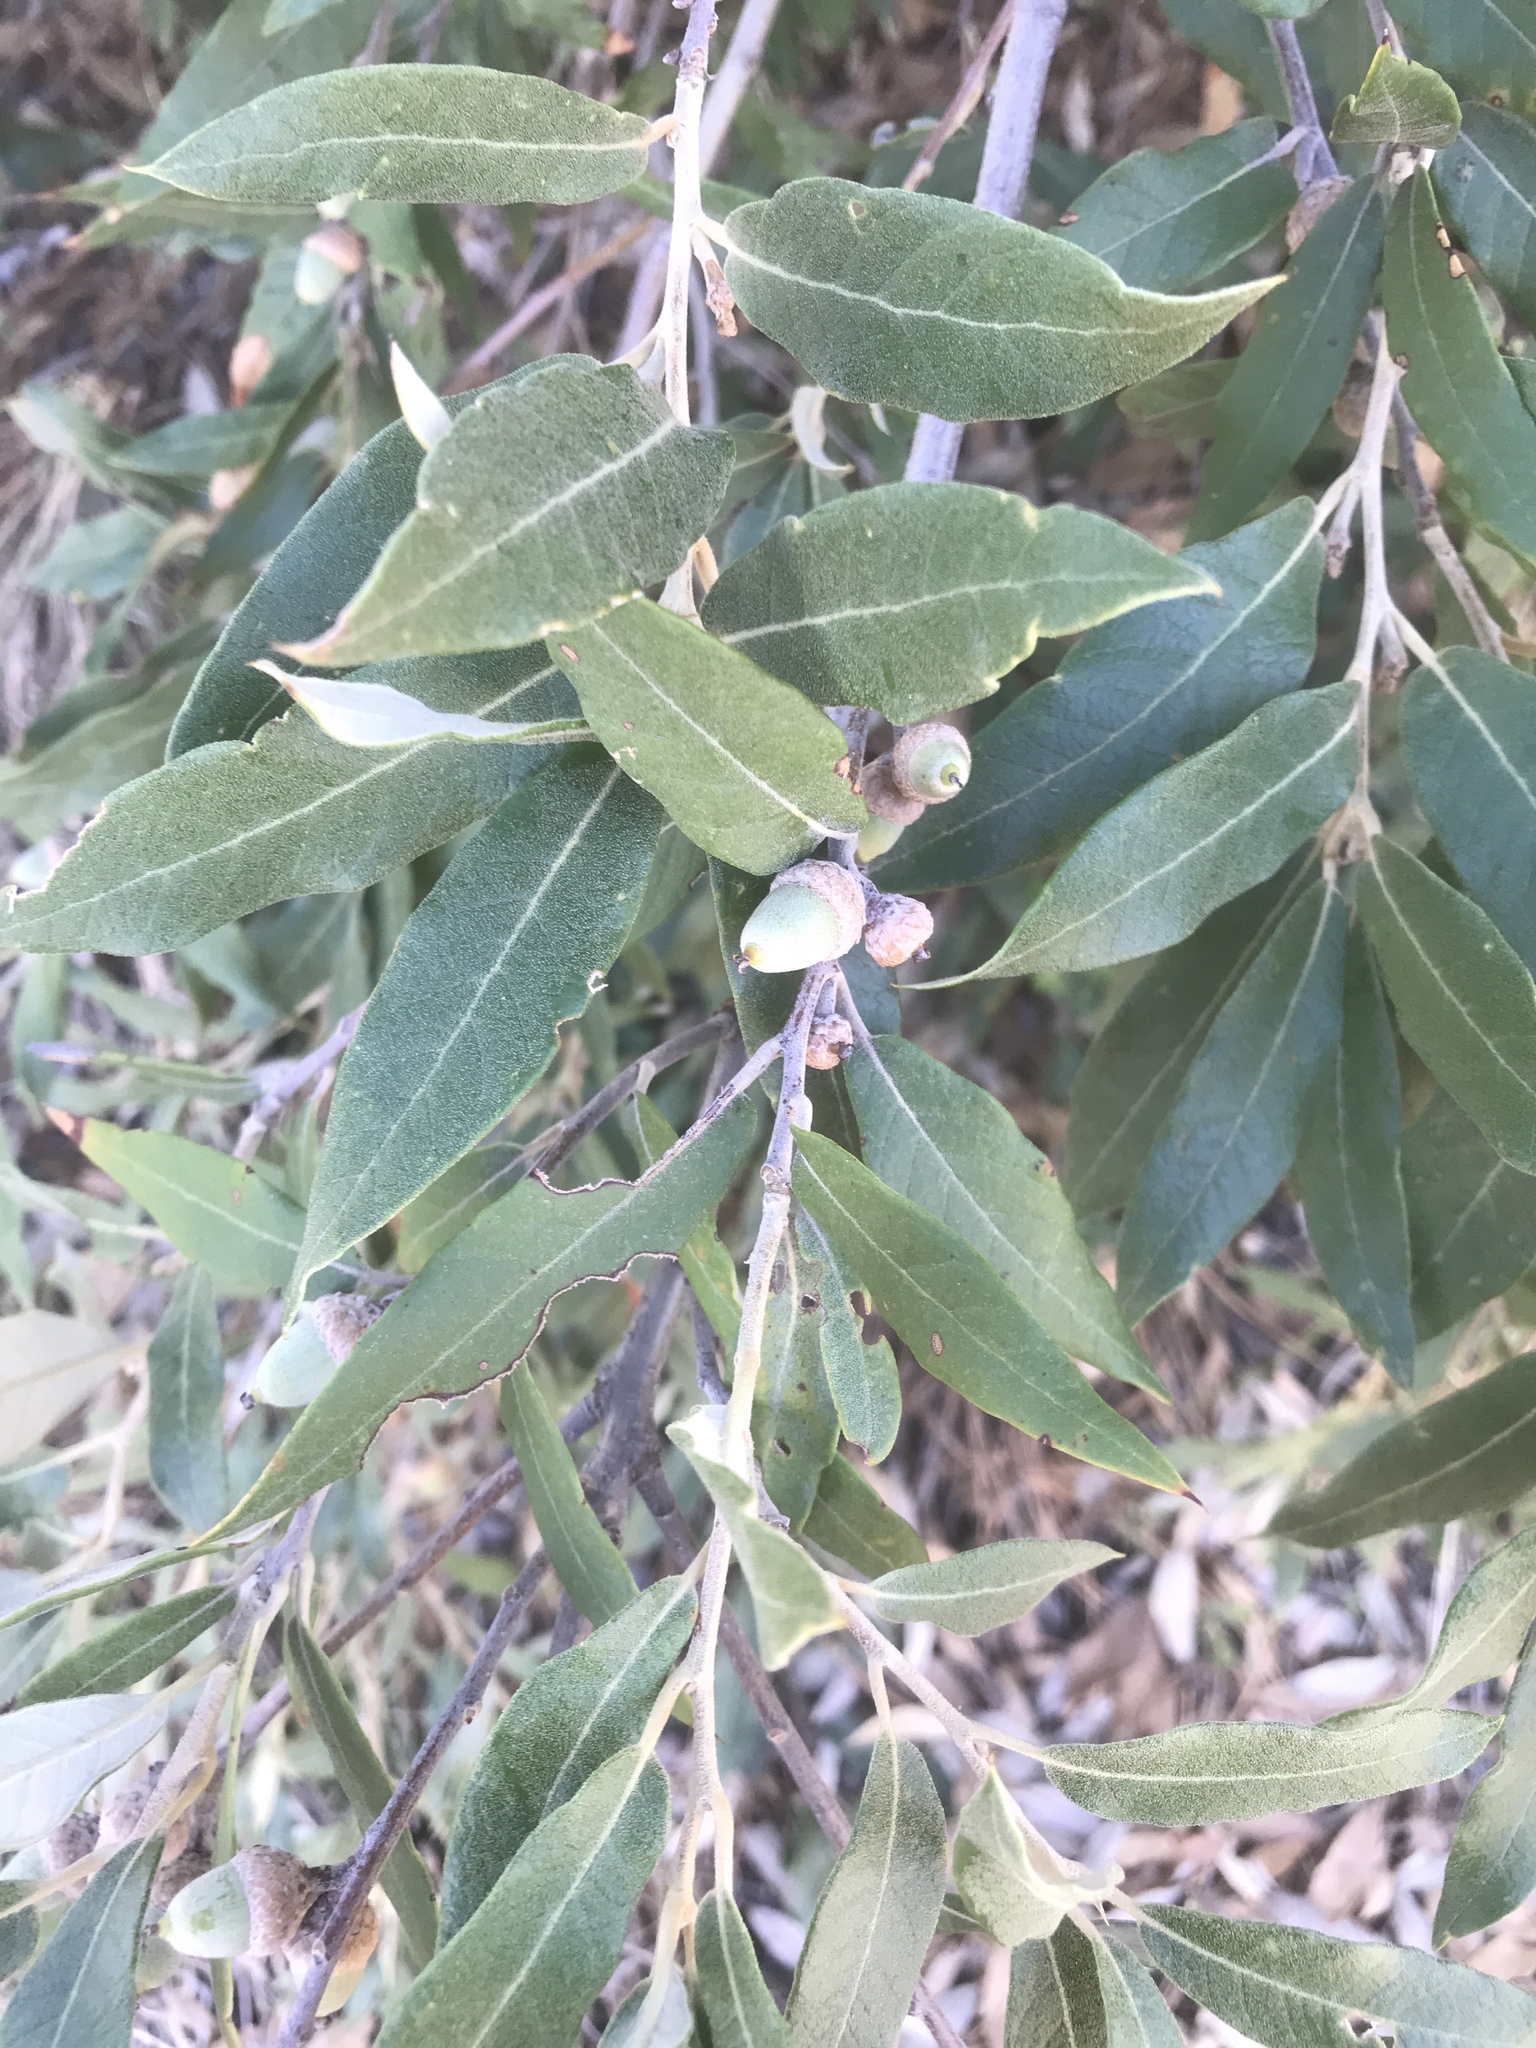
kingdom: Plantae
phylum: Tracheophyta
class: Magnoliopsida
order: Fagales
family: Fagaceae
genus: Quercus
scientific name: Quercus hypoleucoides
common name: Silverleaf oak
